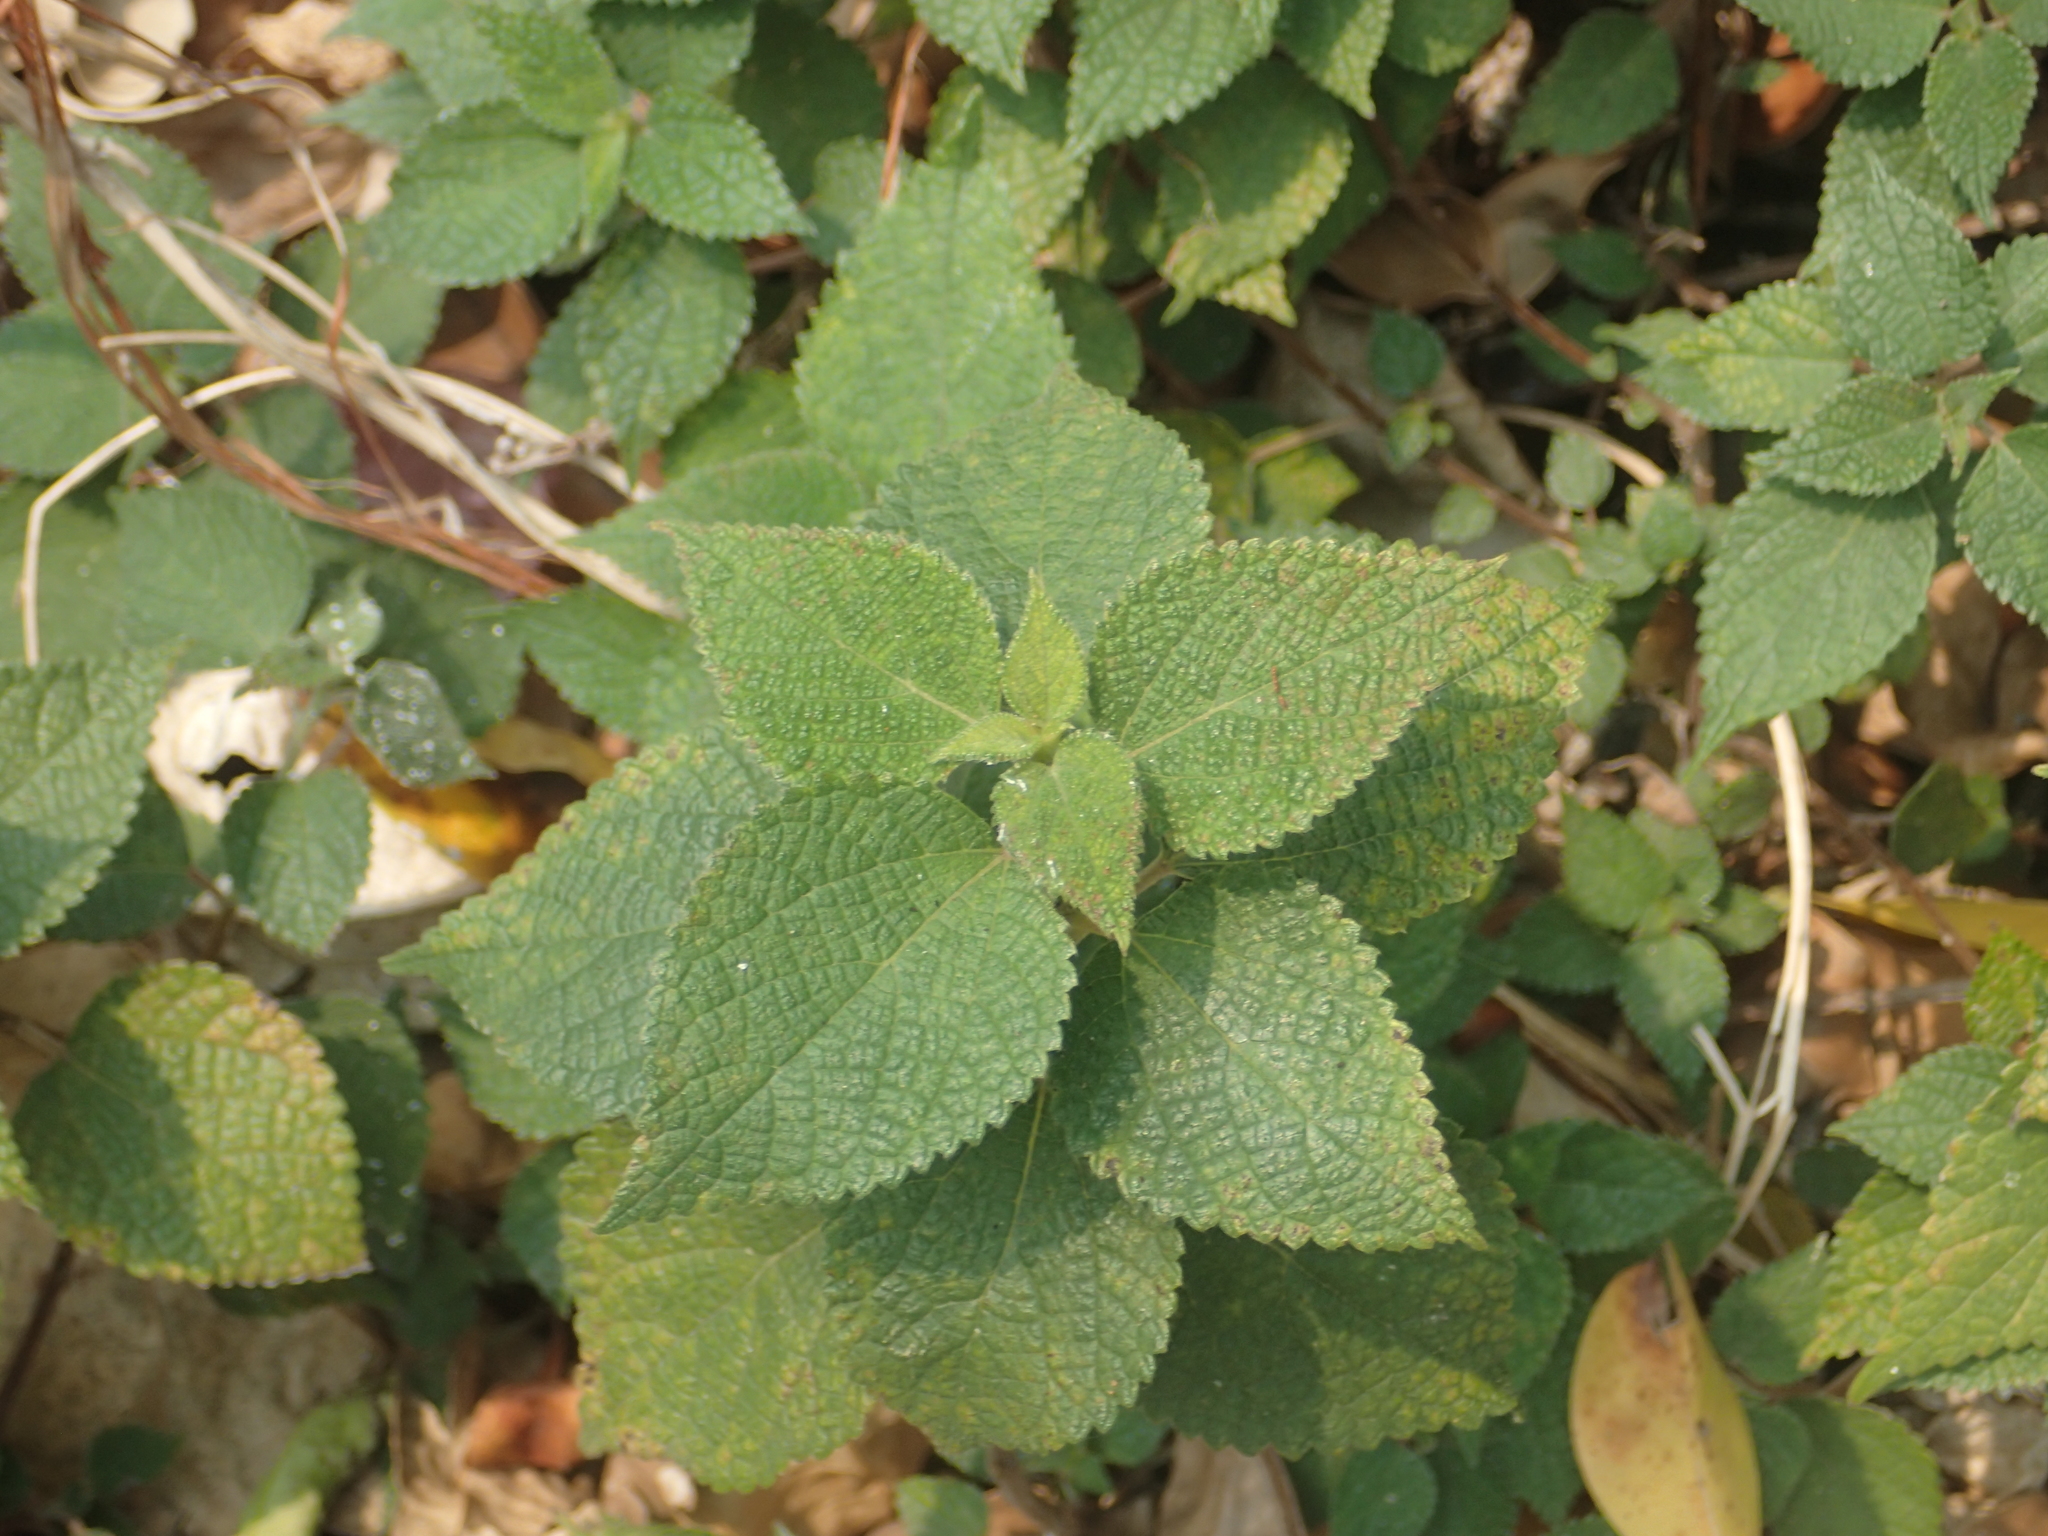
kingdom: Plantae
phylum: Tracheophyta
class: Magnoliopsida
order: Rosales
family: Urticaceae
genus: Boehmeria
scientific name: Boehmeria nivea
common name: Ramie chinese grass
